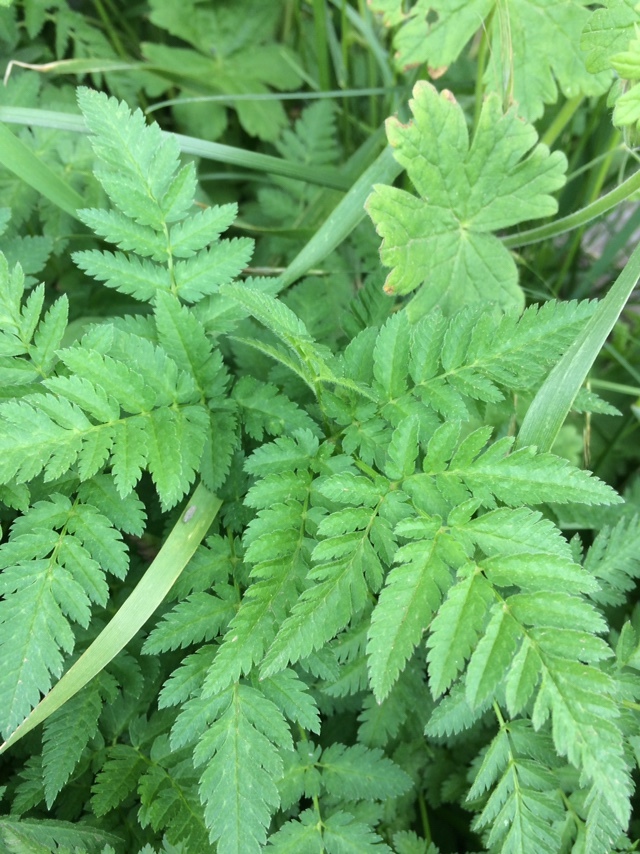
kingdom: Plantae
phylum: Tracheophyta
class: Magnoliopsida
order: Apiales
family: Apiaceae
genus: Anthriscus
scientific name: Anthriscus sylvestris
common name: Cow parsley
